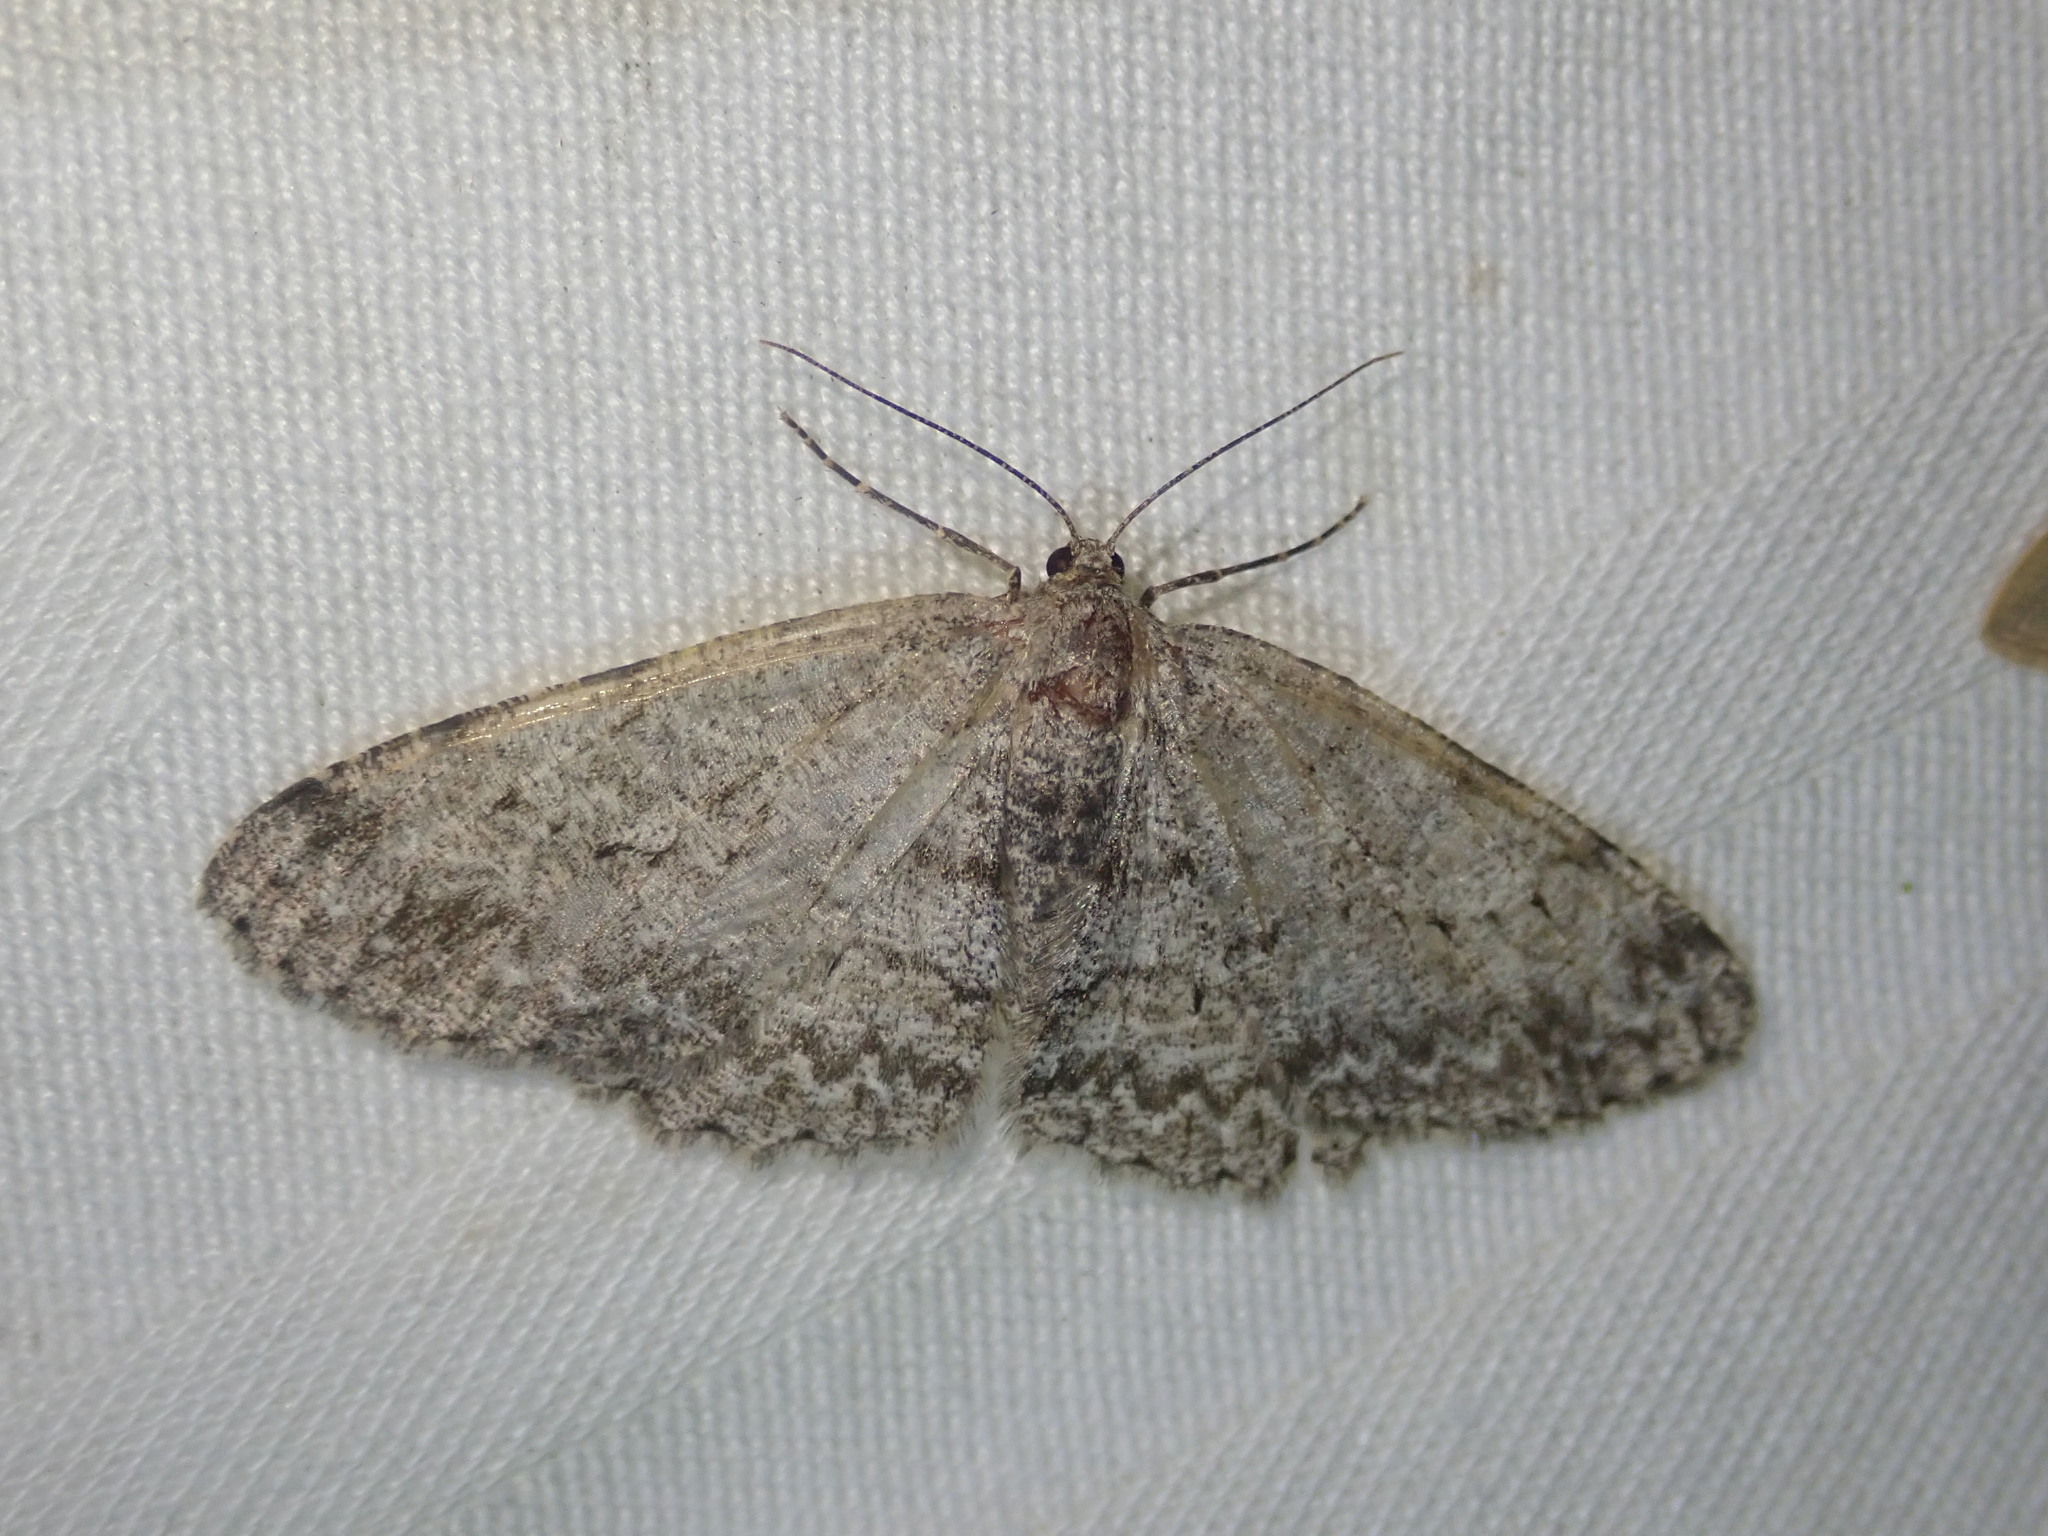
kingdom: Animalia
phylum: Arthropoda
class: Insecta
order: Lepidoptera
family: Geometridae
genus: Ectropis
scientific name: Ectropis crepuscularia
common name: Engrailed
